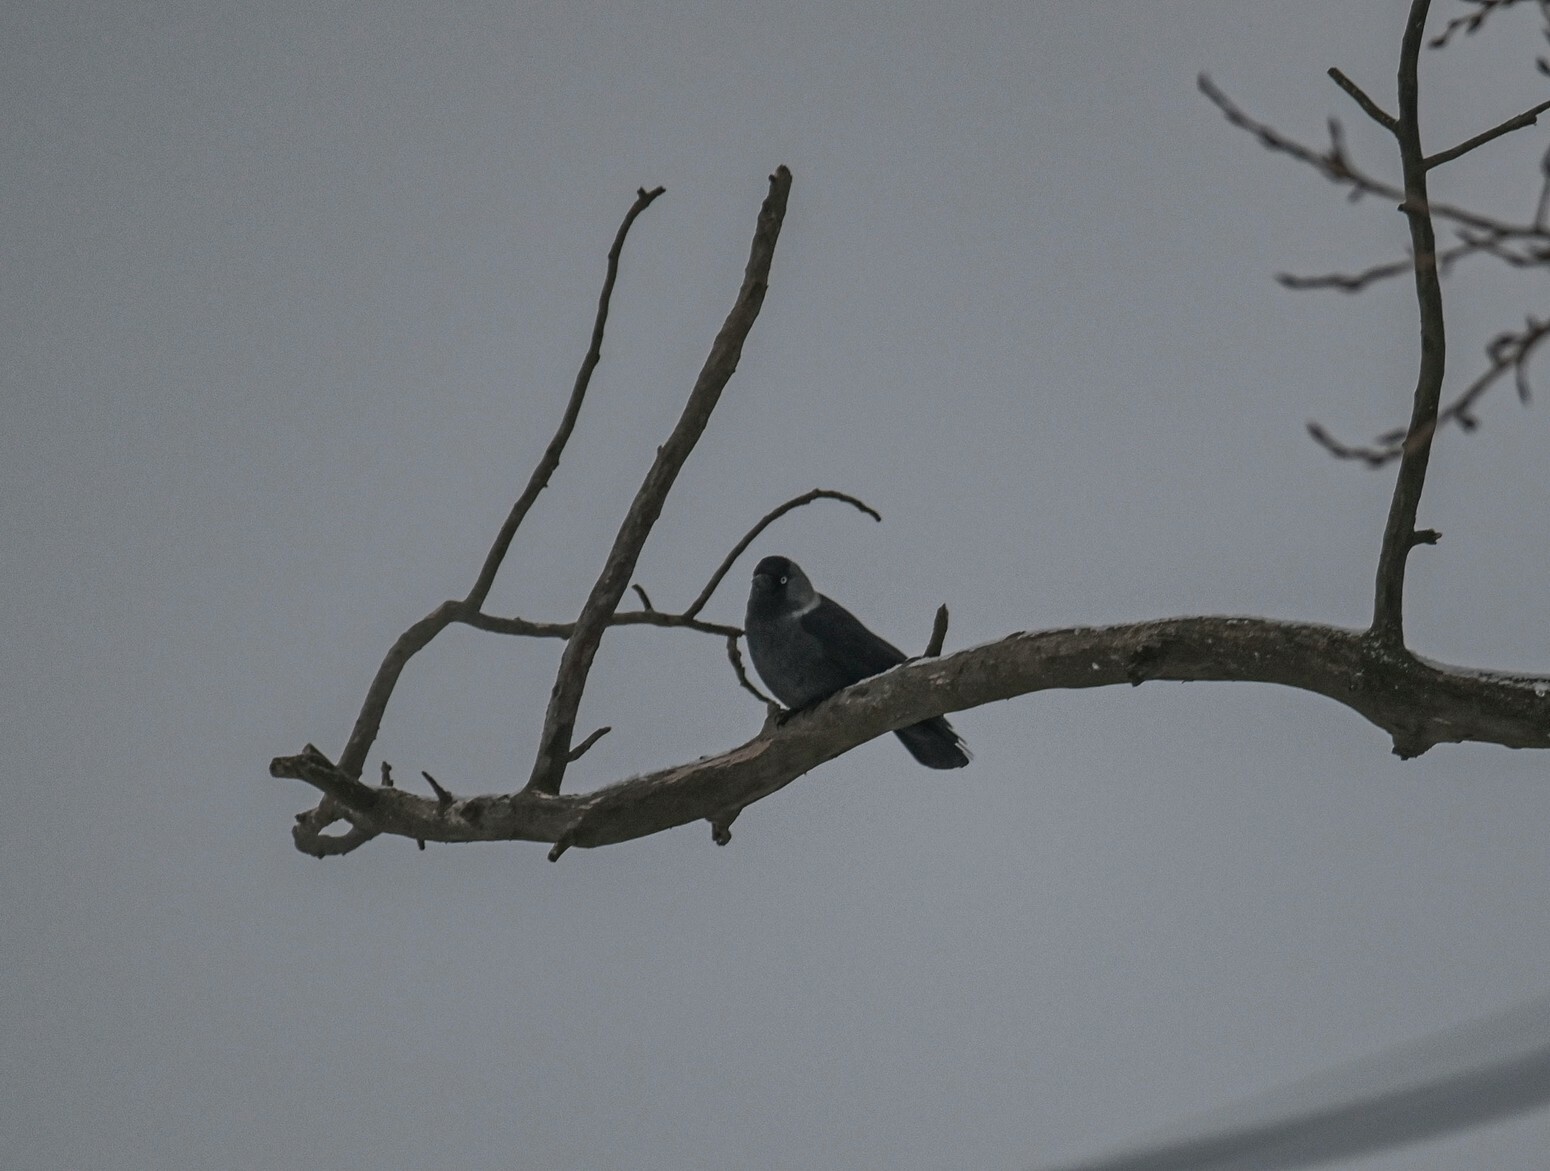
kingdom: Animalia
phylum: Chordata
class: Aves
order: Passeriformes
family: Corvidae
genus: Coloeus
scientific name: Coloeus monedula
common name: Western jackdaw
